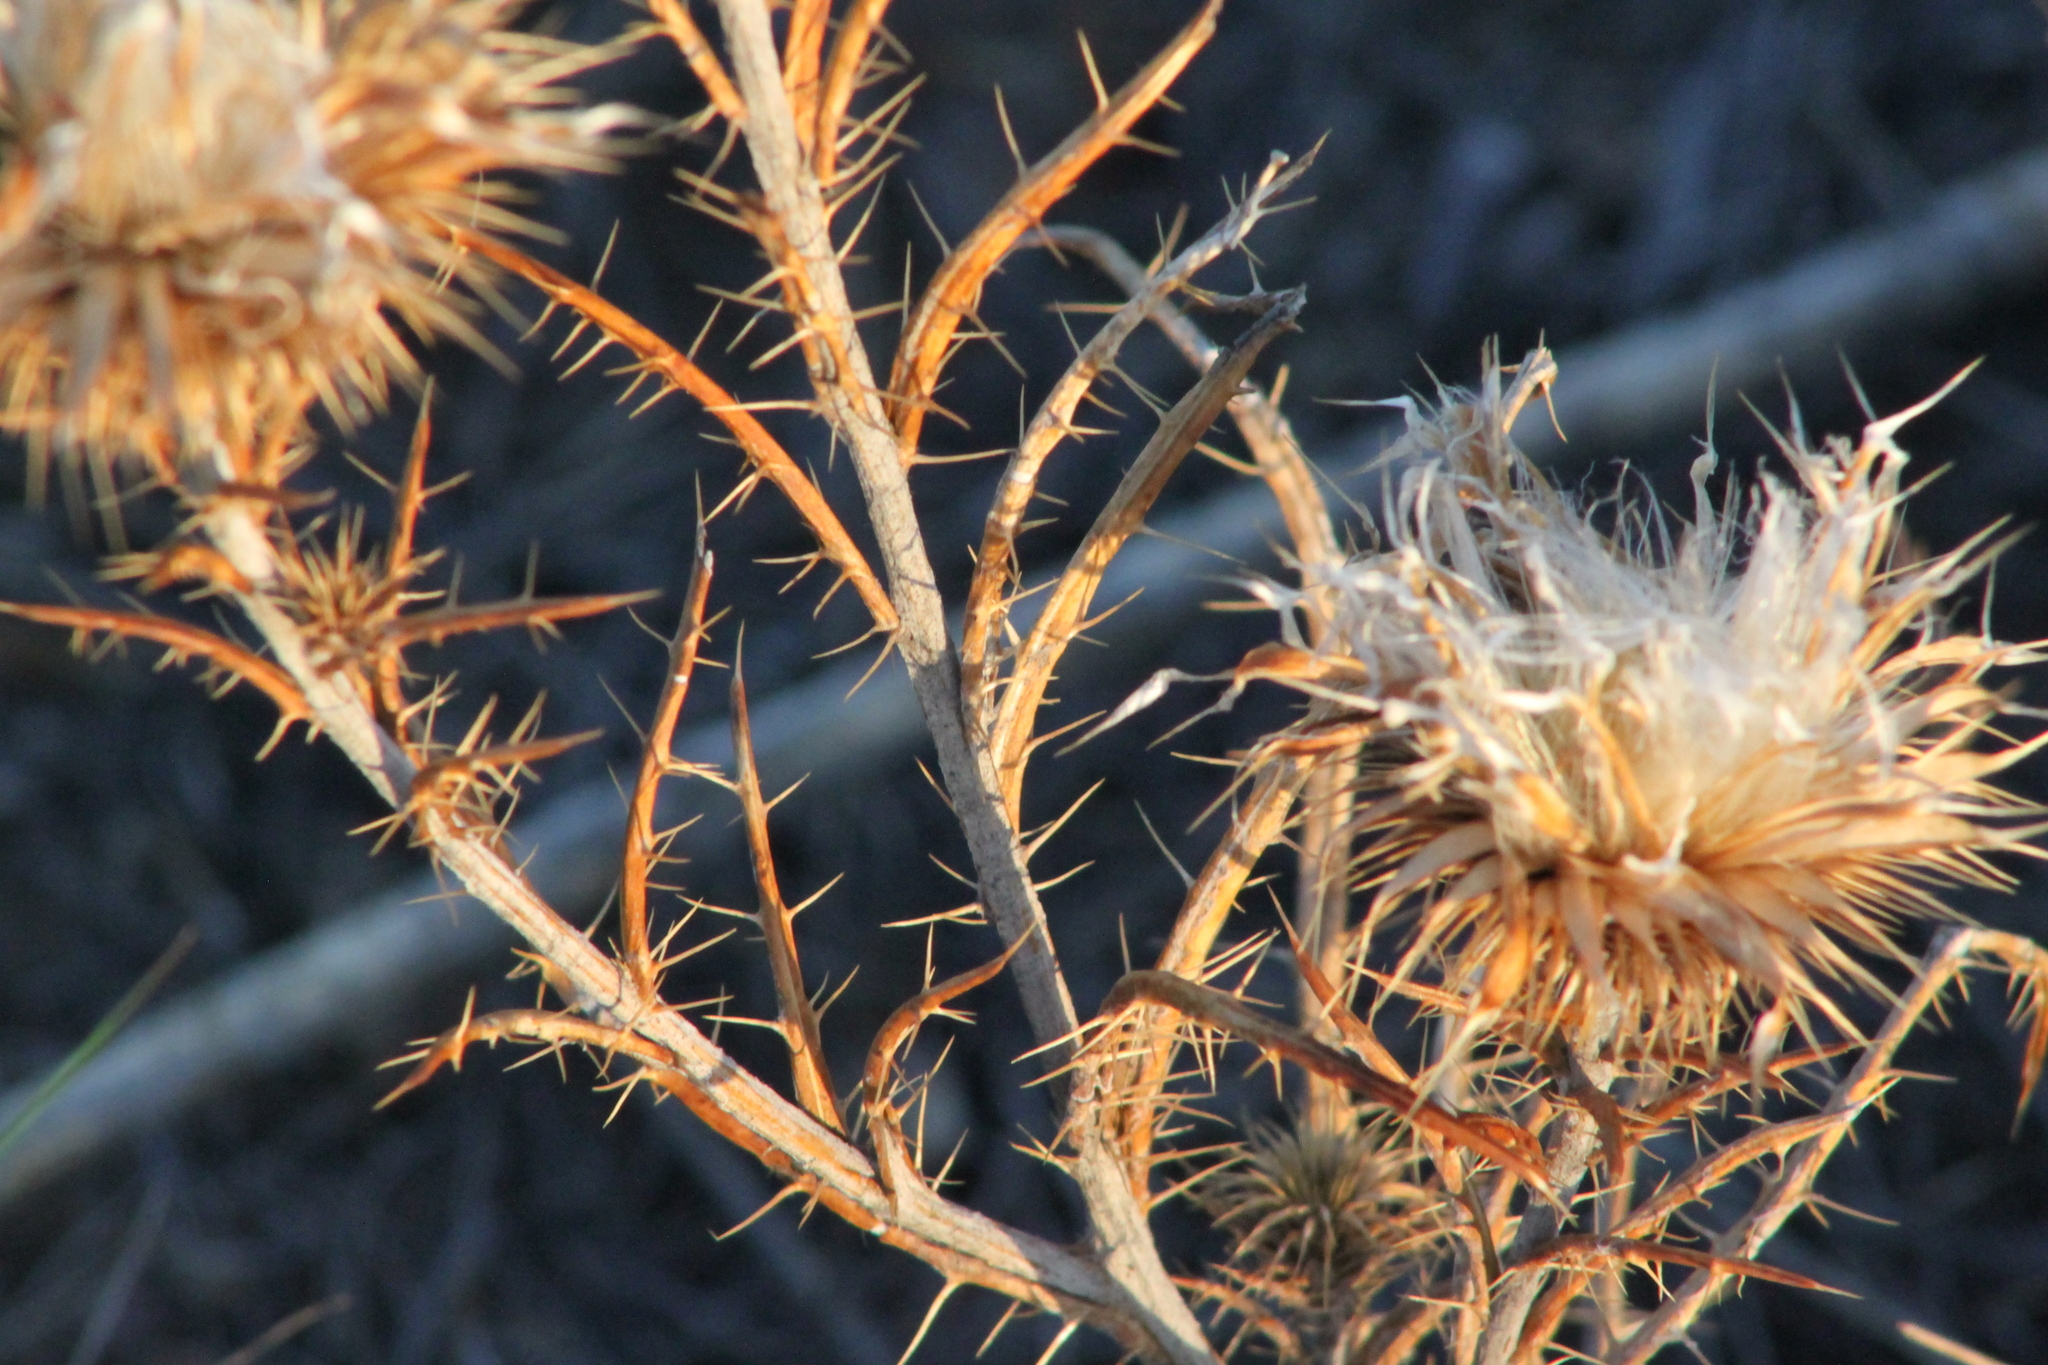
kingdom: Plantae
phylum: Tracheophyta
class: Magnoliopsida
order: Asterales
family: Asteraceae
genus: Ancathia
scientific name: Ancathia igniaria
